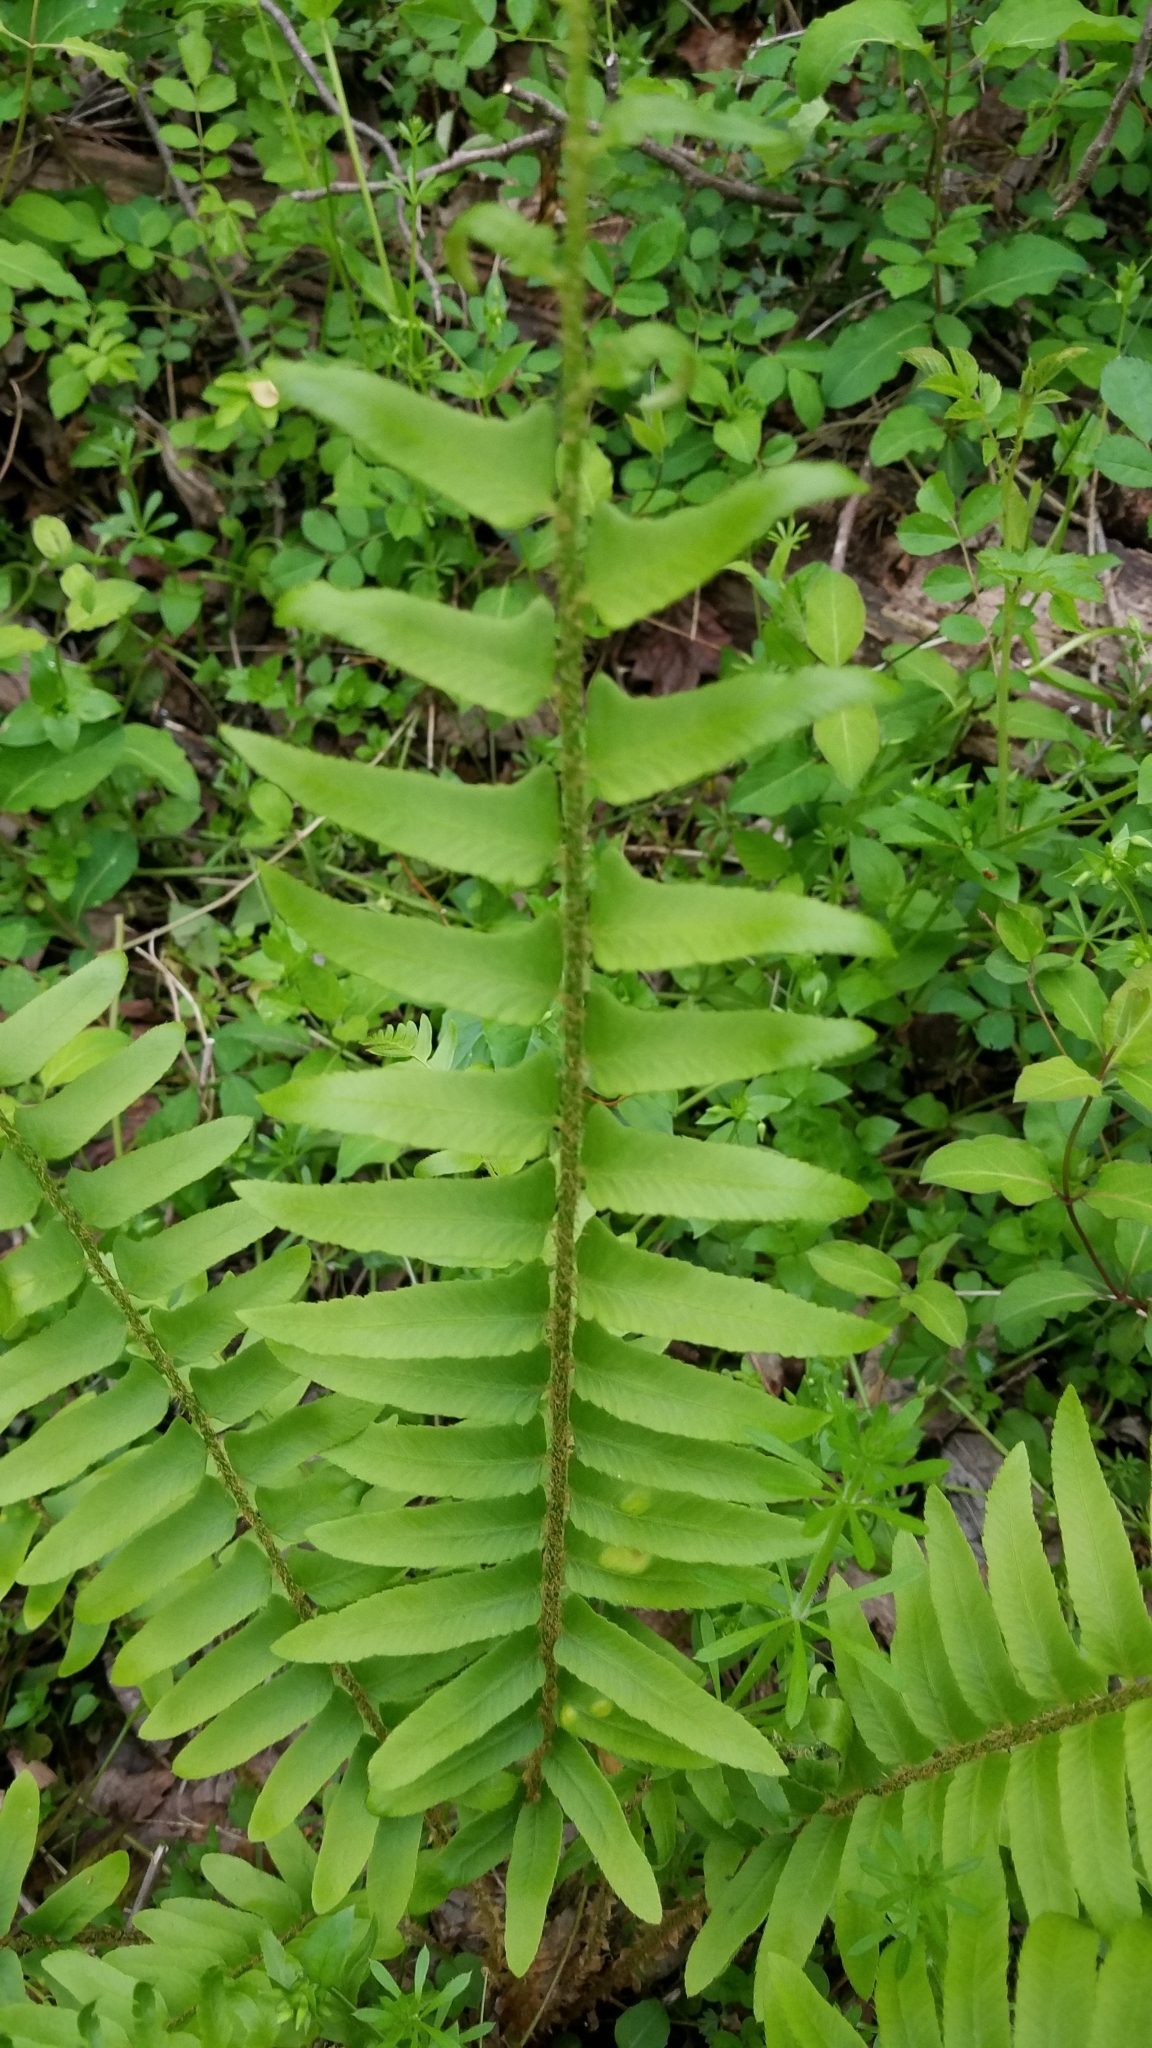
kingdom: Plantae
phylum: Tracheophyta
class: Polypodiopsida
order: Polypodiales
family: Dryopteridaceae
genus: Polystichum
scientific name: Polystichum acrostichoides
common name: Christmas fern
